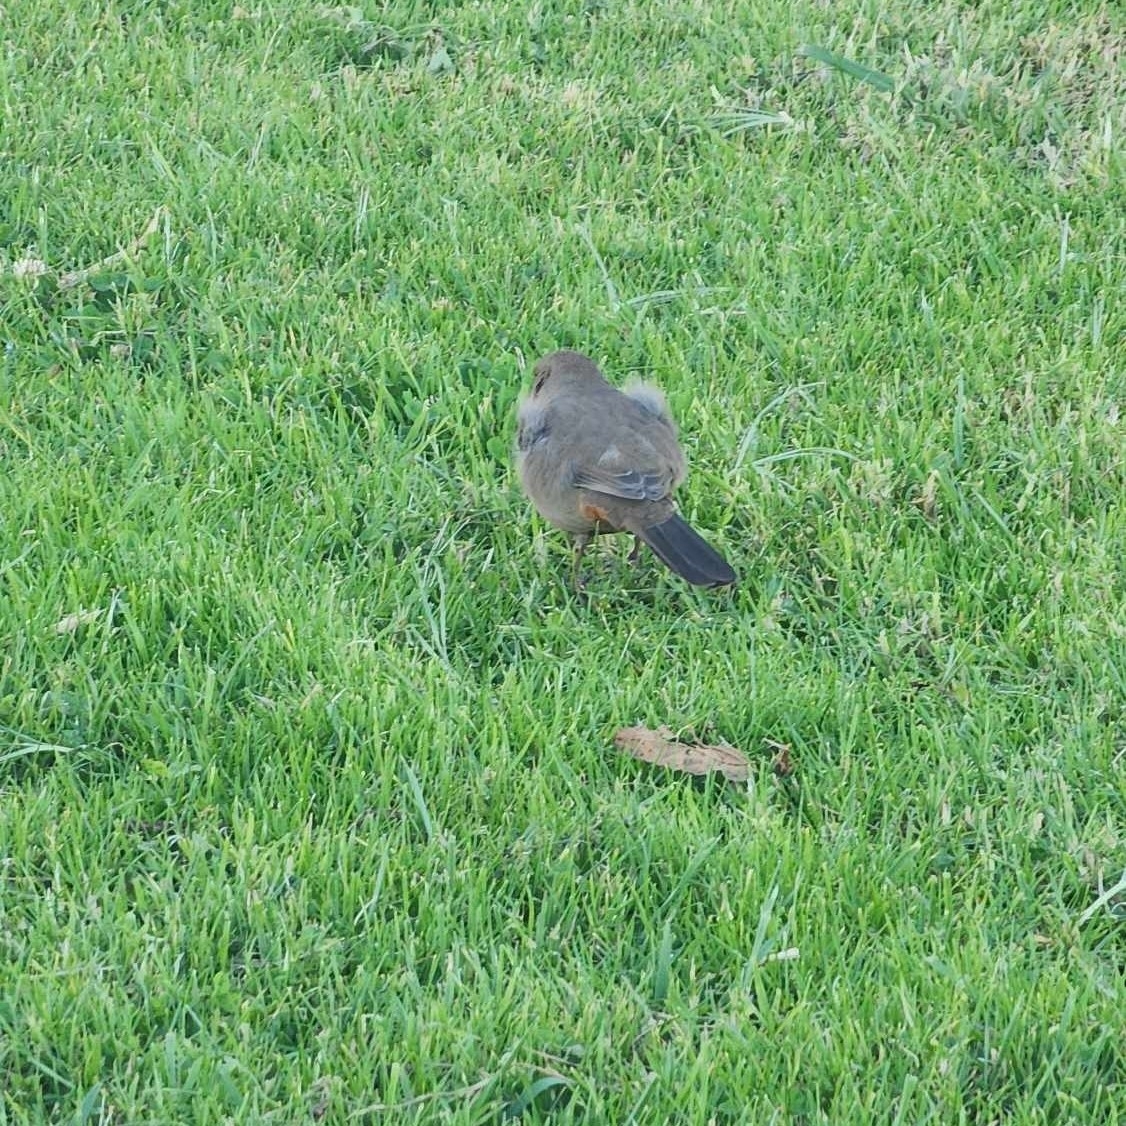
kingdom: Animalia
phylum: Chordata
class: Aves
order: Passeriformes
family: Passerellidae
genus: Melozone
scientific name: Melozone crissalis
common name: California towhee
